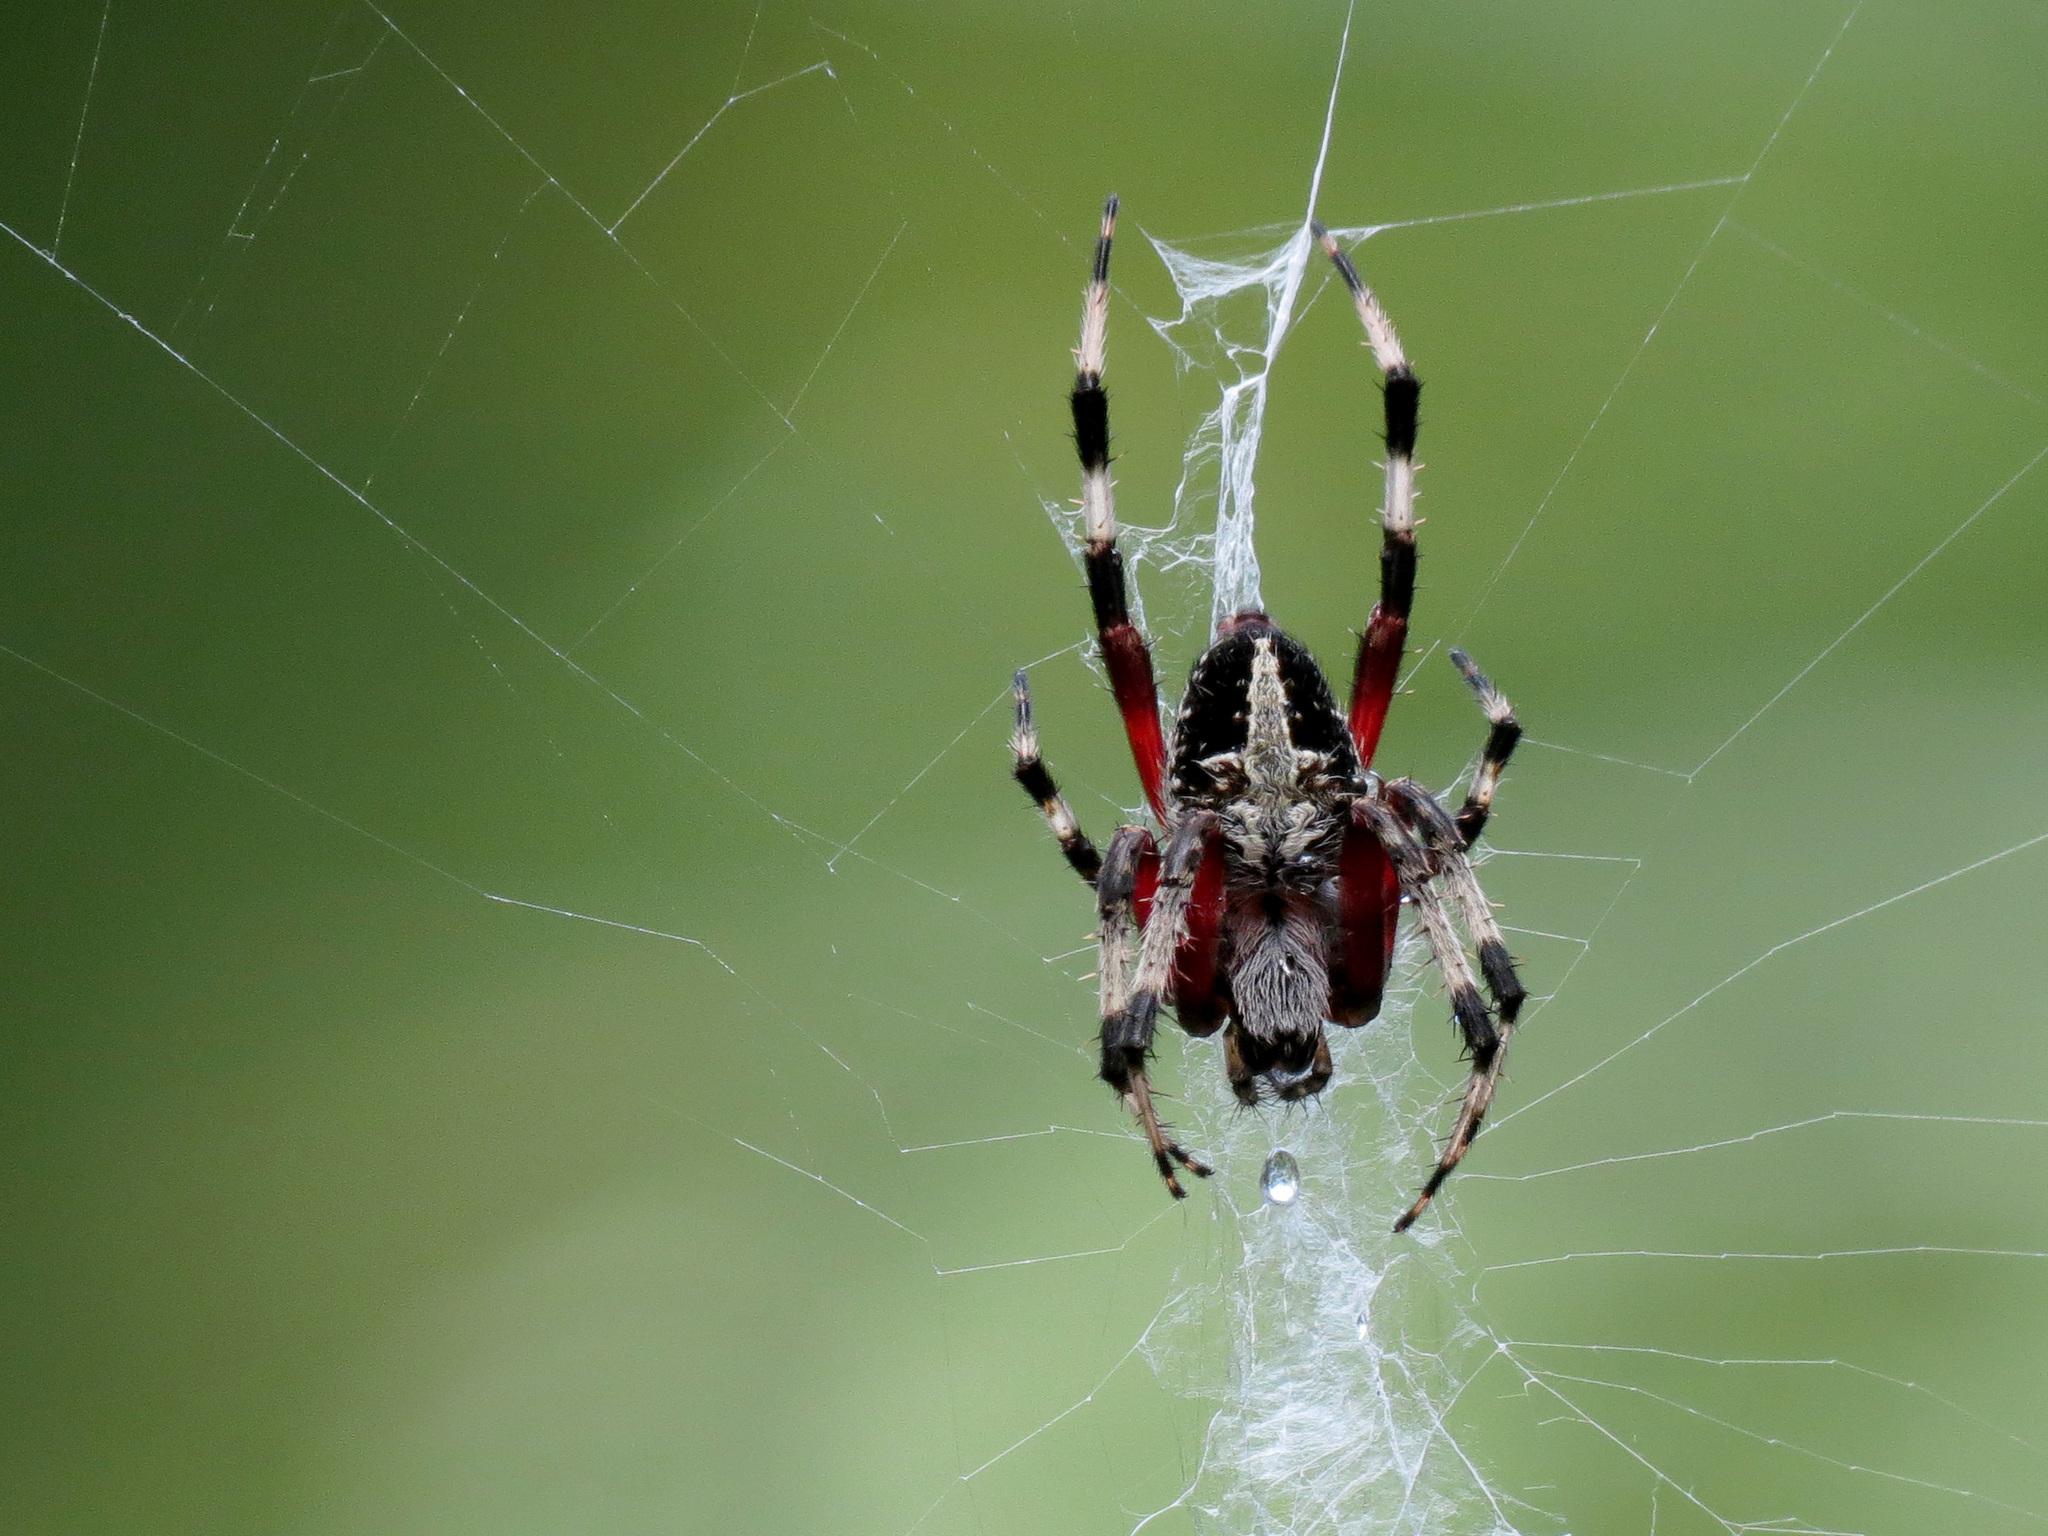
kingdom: Animalia
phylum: Arthropoda
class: Arachnida
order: Araneae
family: Araneidae
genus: Neoscona
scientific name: Neoscona domiciliorum
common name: Red-femured spotted orbweaver
